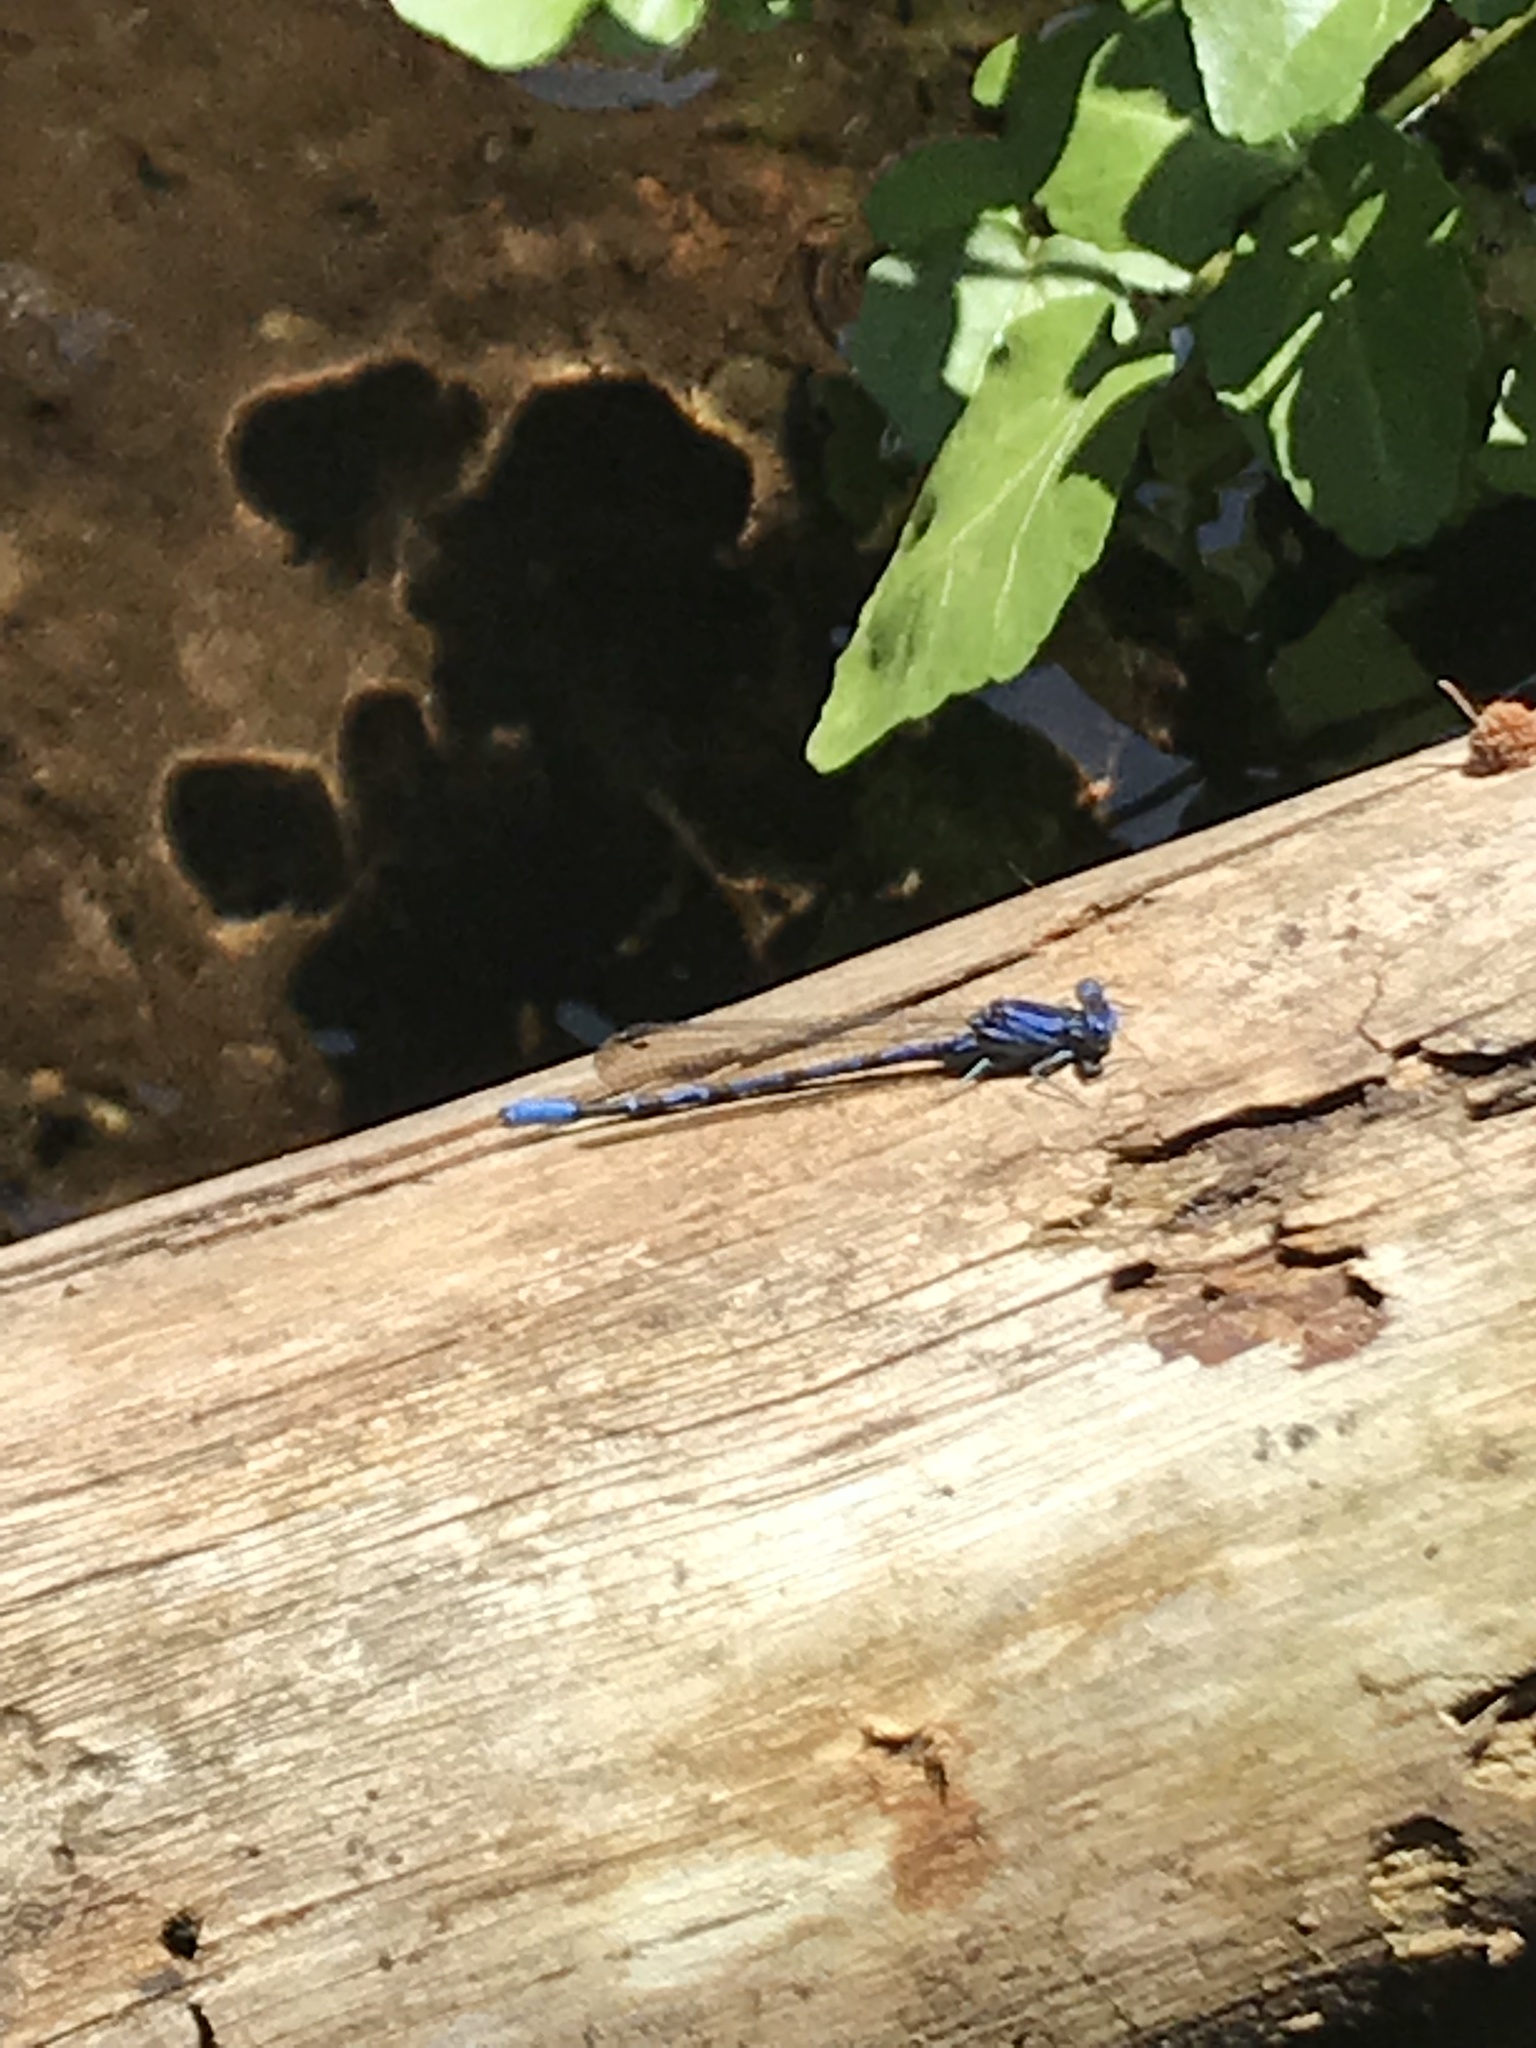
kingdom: Animalia
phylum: Arthropoda
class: Insecta
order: Odonata
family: Coenagrionidae
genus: Argia
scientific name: Argia vivida
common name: Vivid dancer
